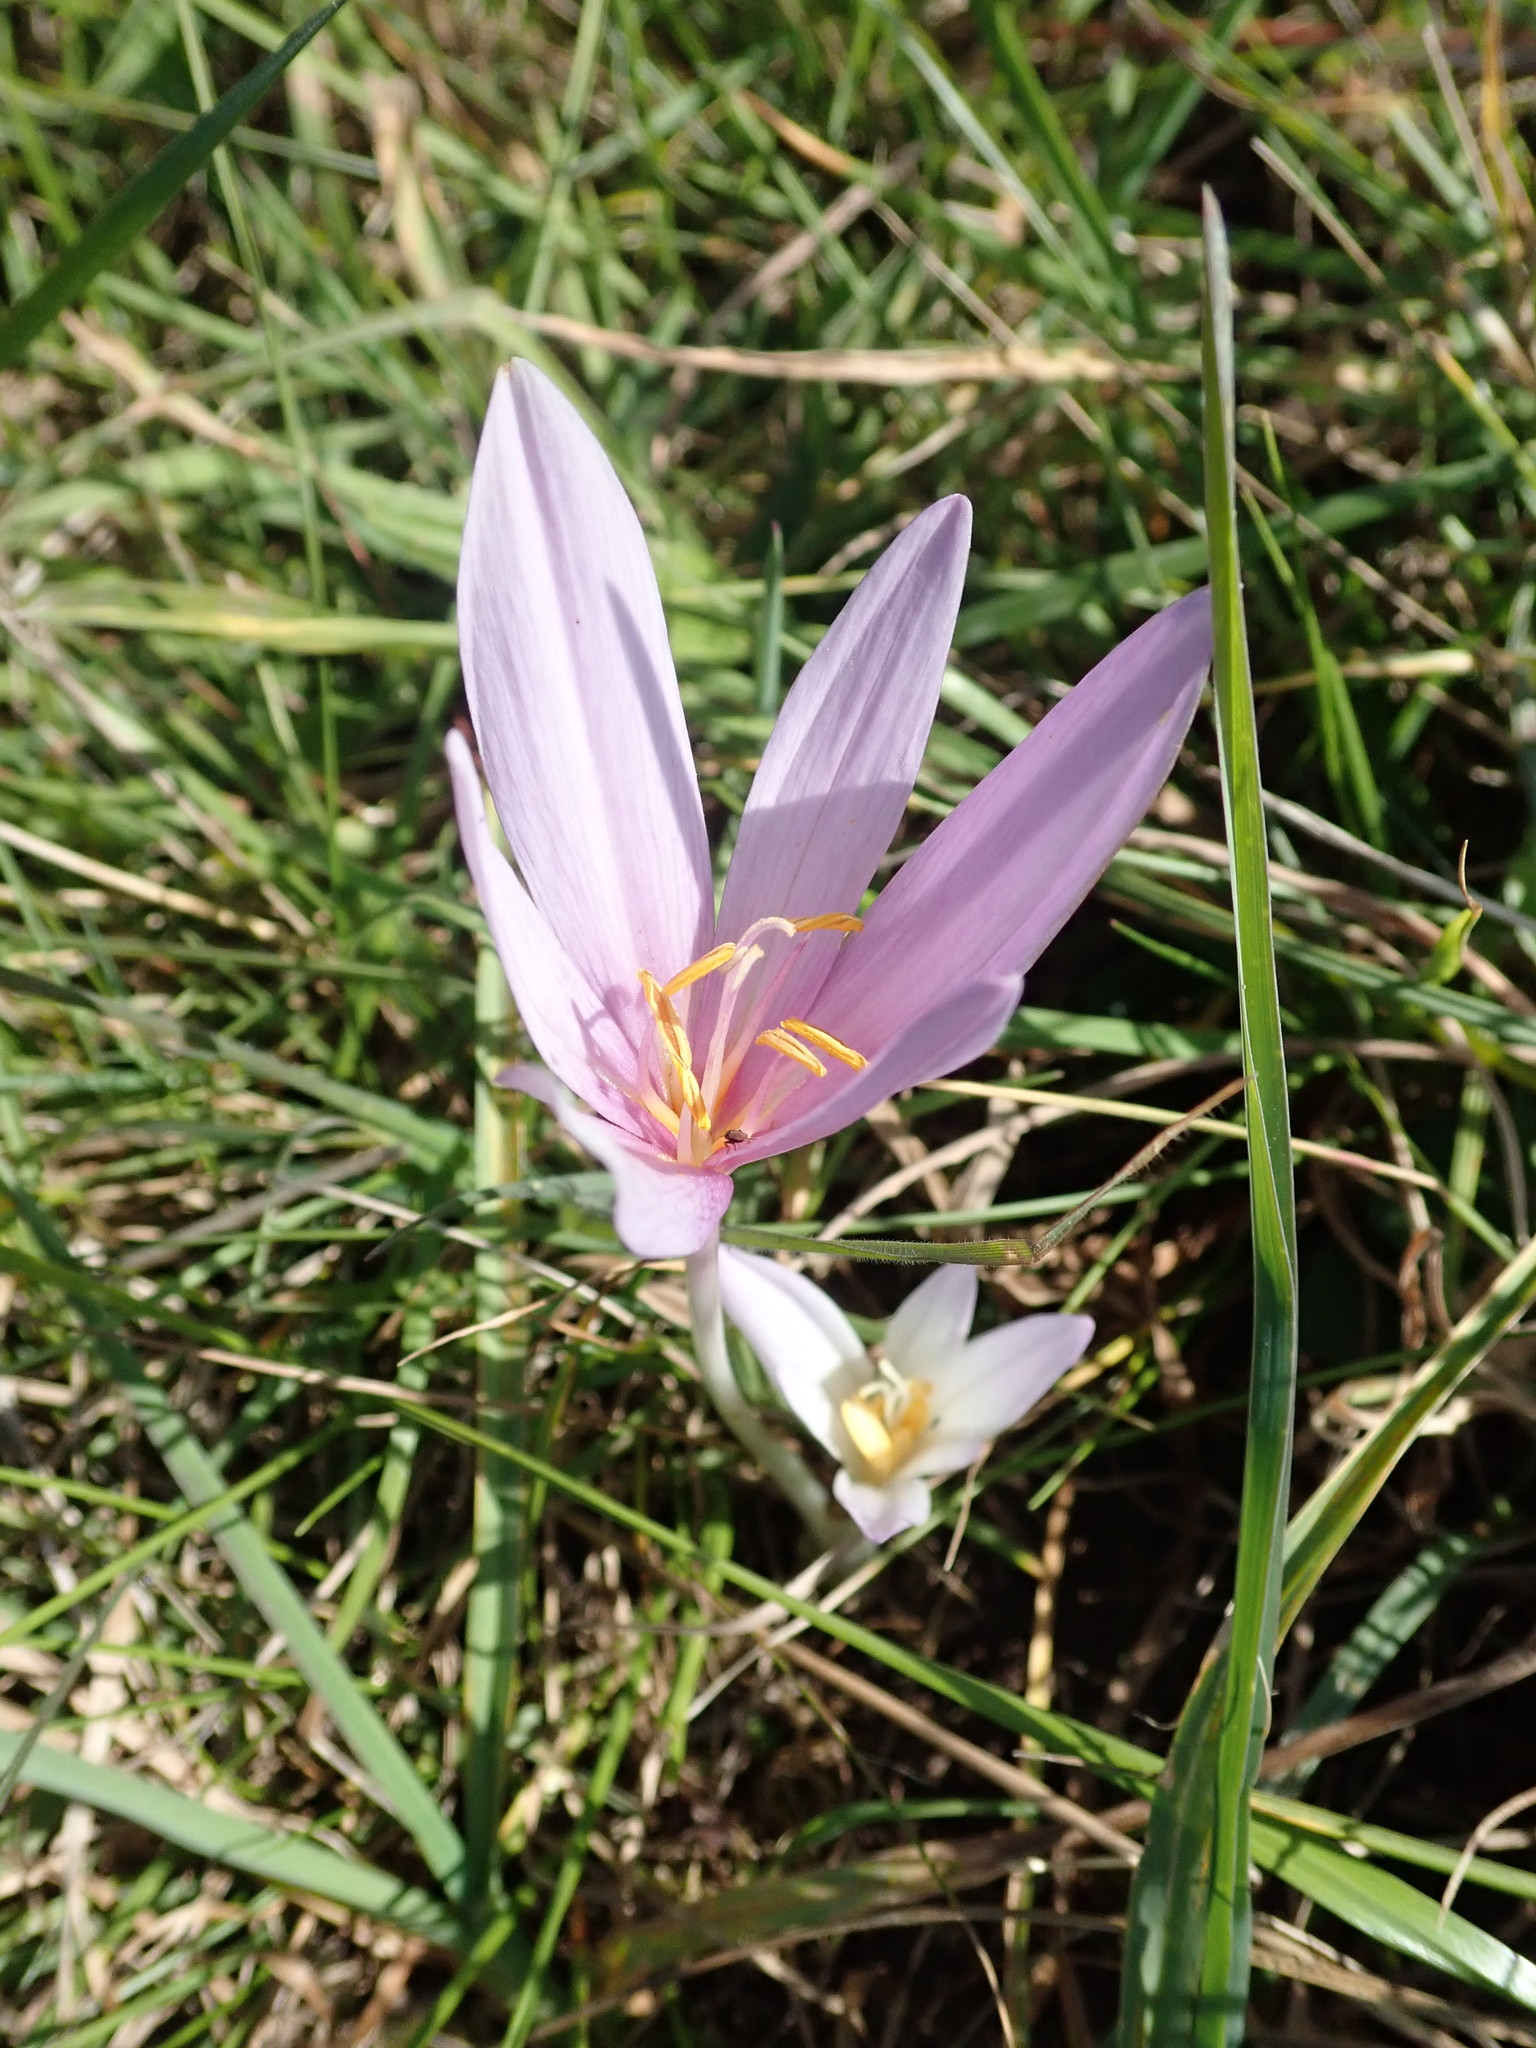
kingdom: Plantae
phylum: Tracheophyta
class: Liliopsida
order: Liliales
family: Colchicaceae
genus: Colchicum
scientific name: Colchicum autumnale
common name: Autumn crocus
